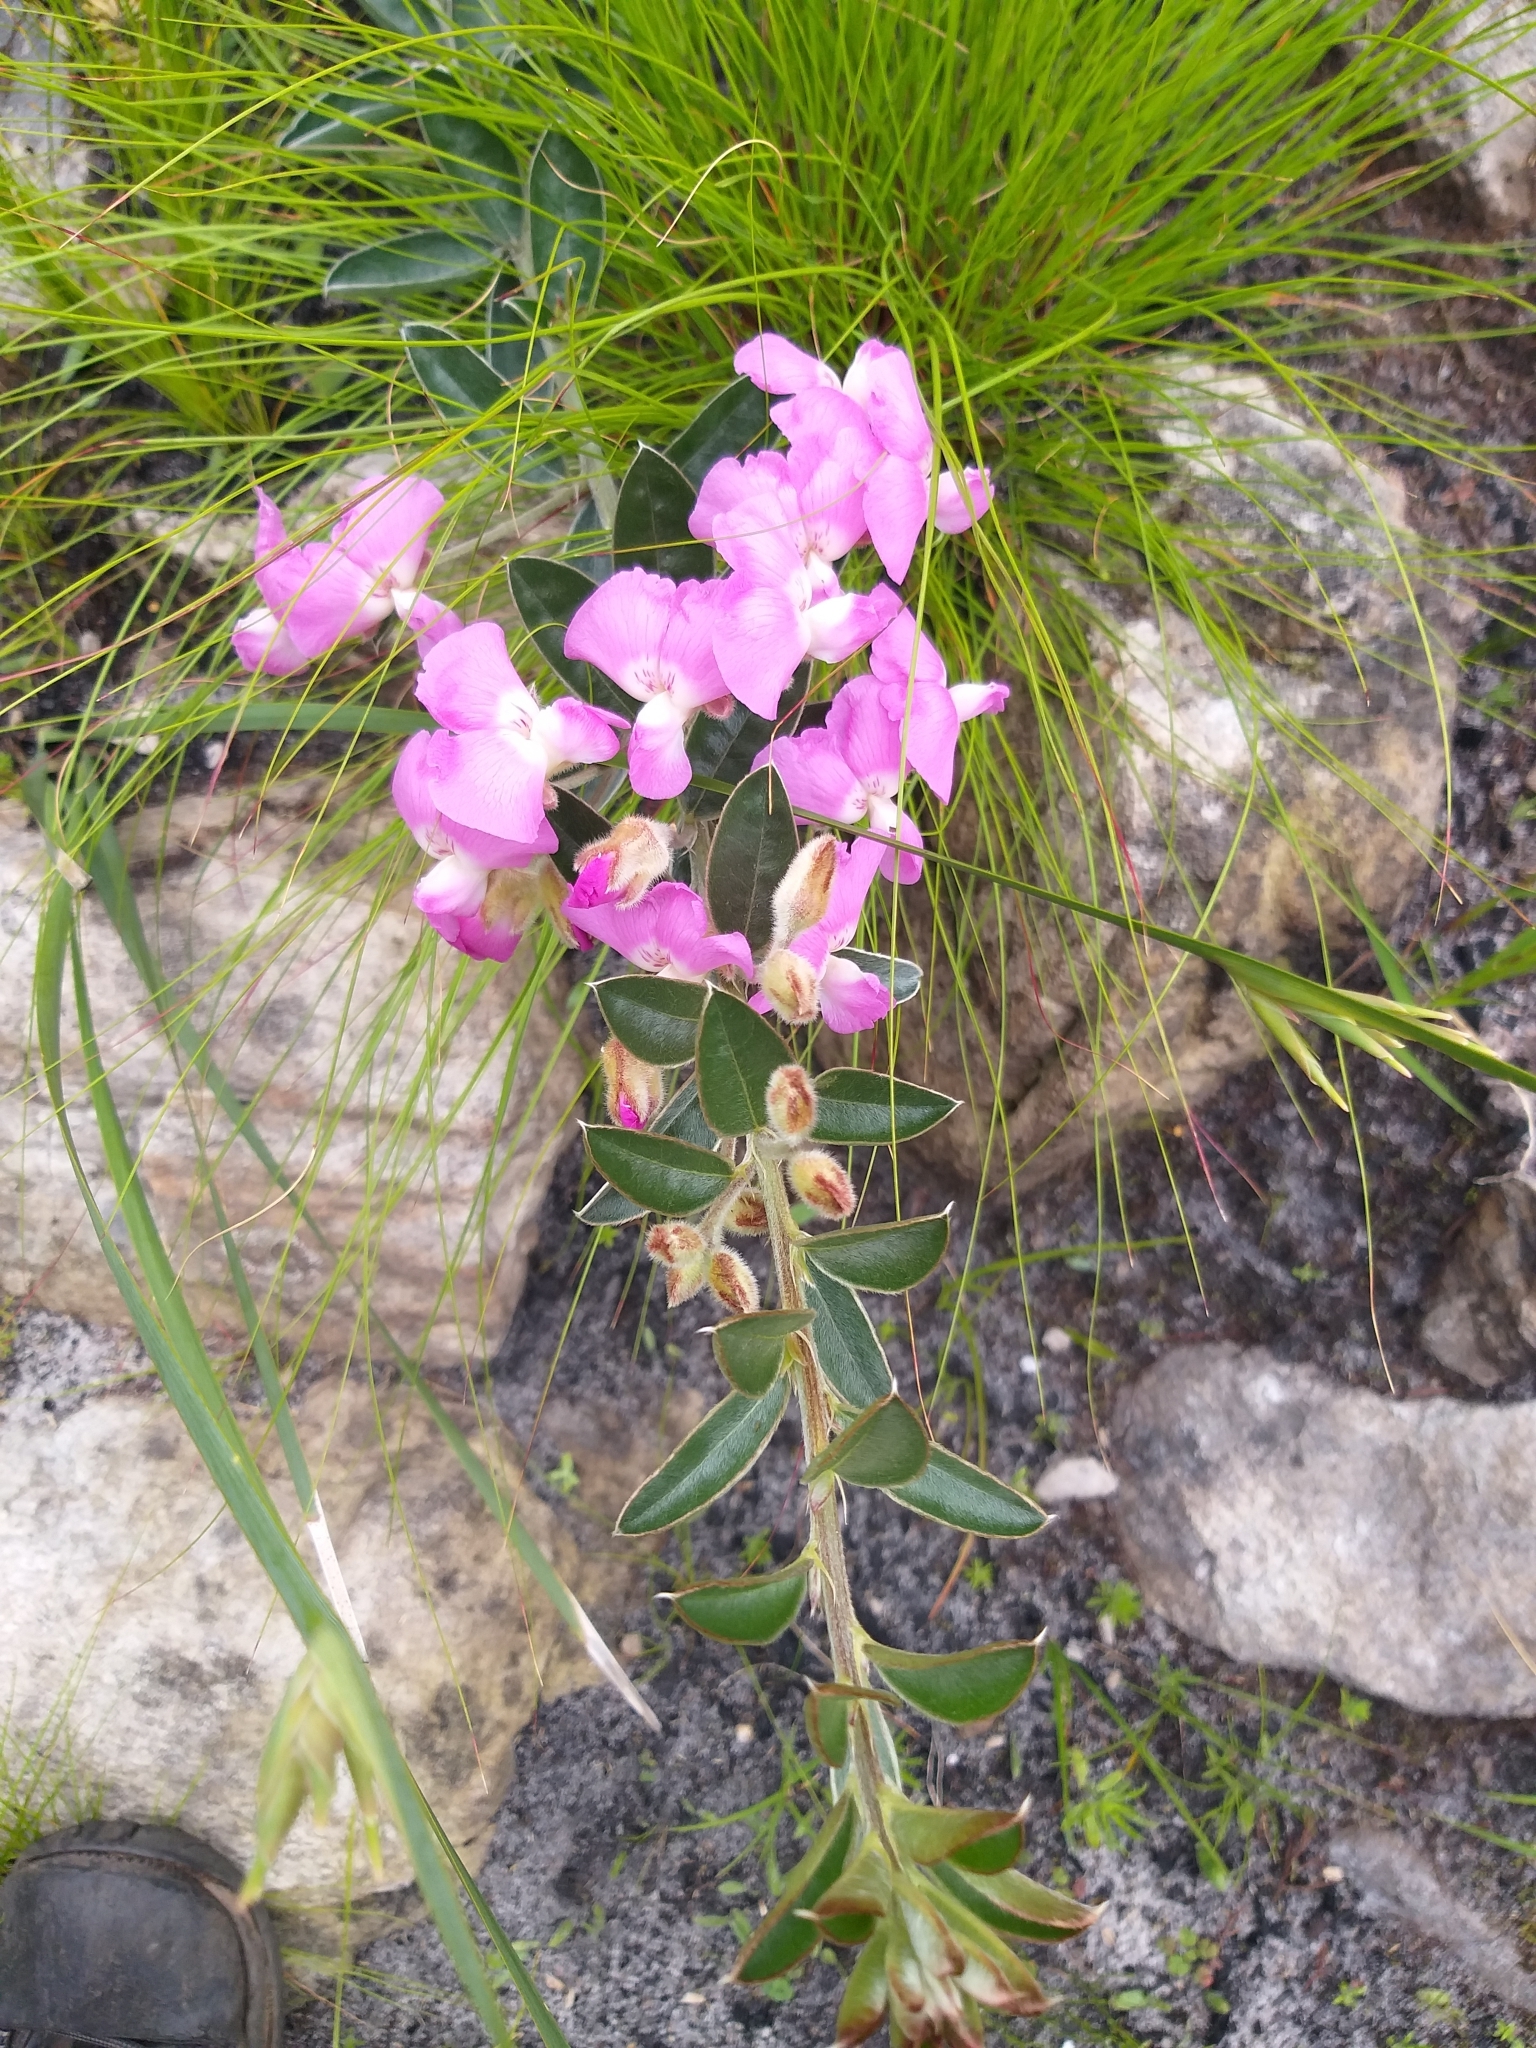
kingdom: Plantae
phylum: Tracheophyta
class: Magnoliopsida
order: Fabales
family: Fabaceae
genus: Podalyria
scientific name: Podalyria variabilis
